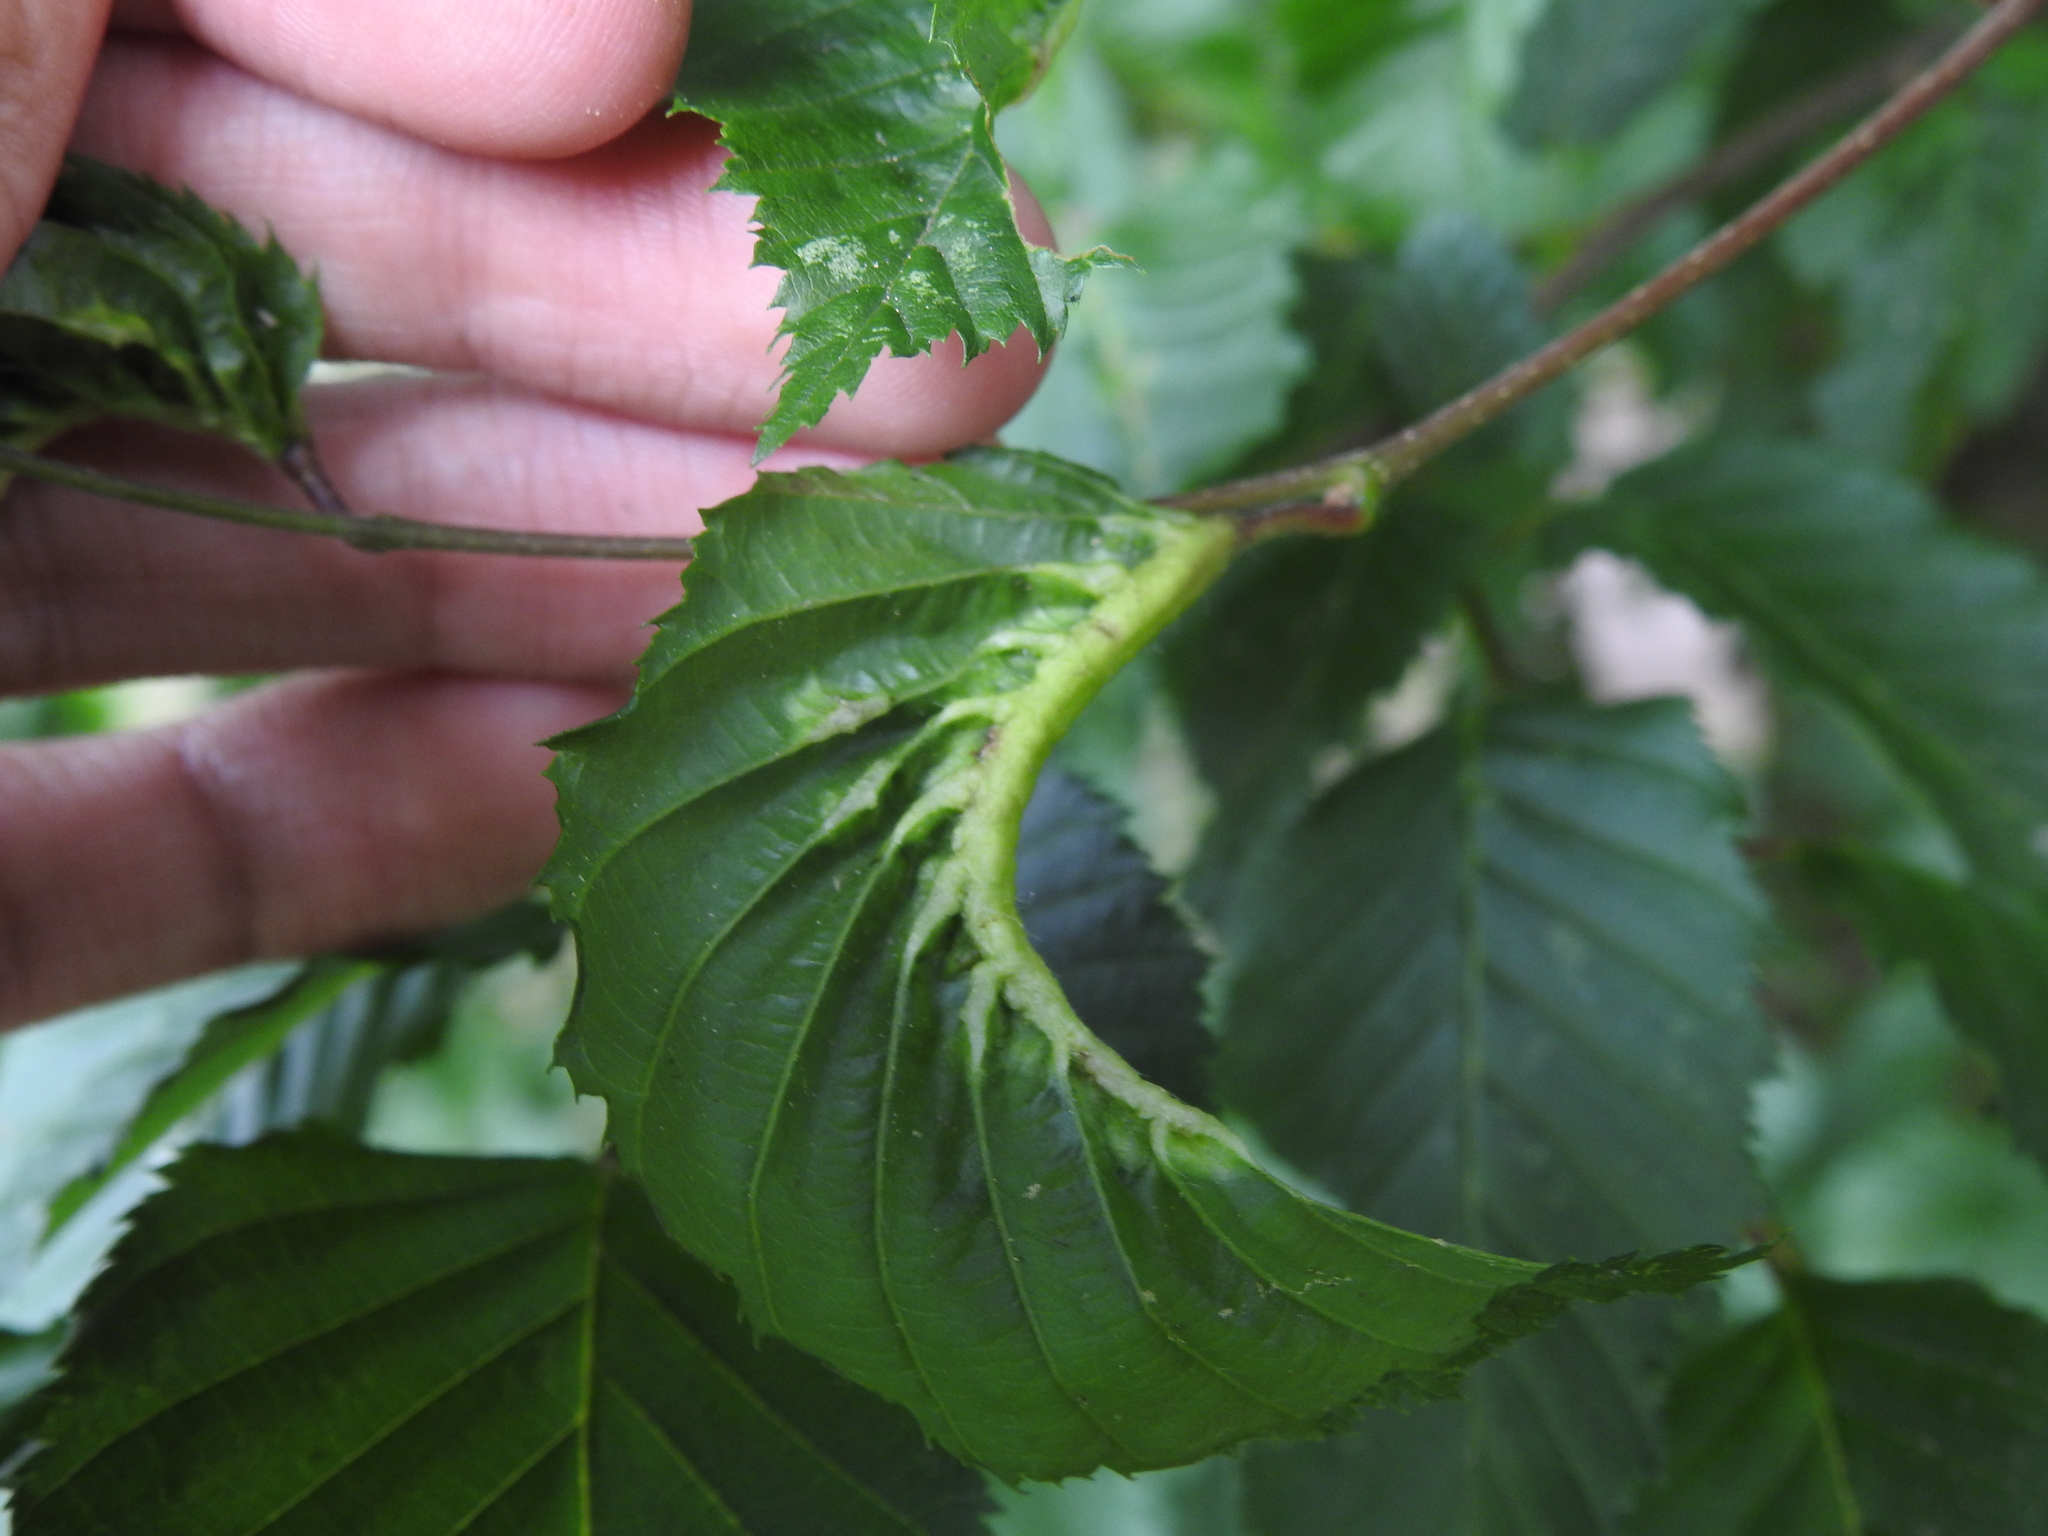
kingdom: Animalia
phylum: Arthropoda
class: Insecta
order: Diptera
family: Cecidomyiidae
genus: Zygiobia
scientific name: Zygiobia carpini
